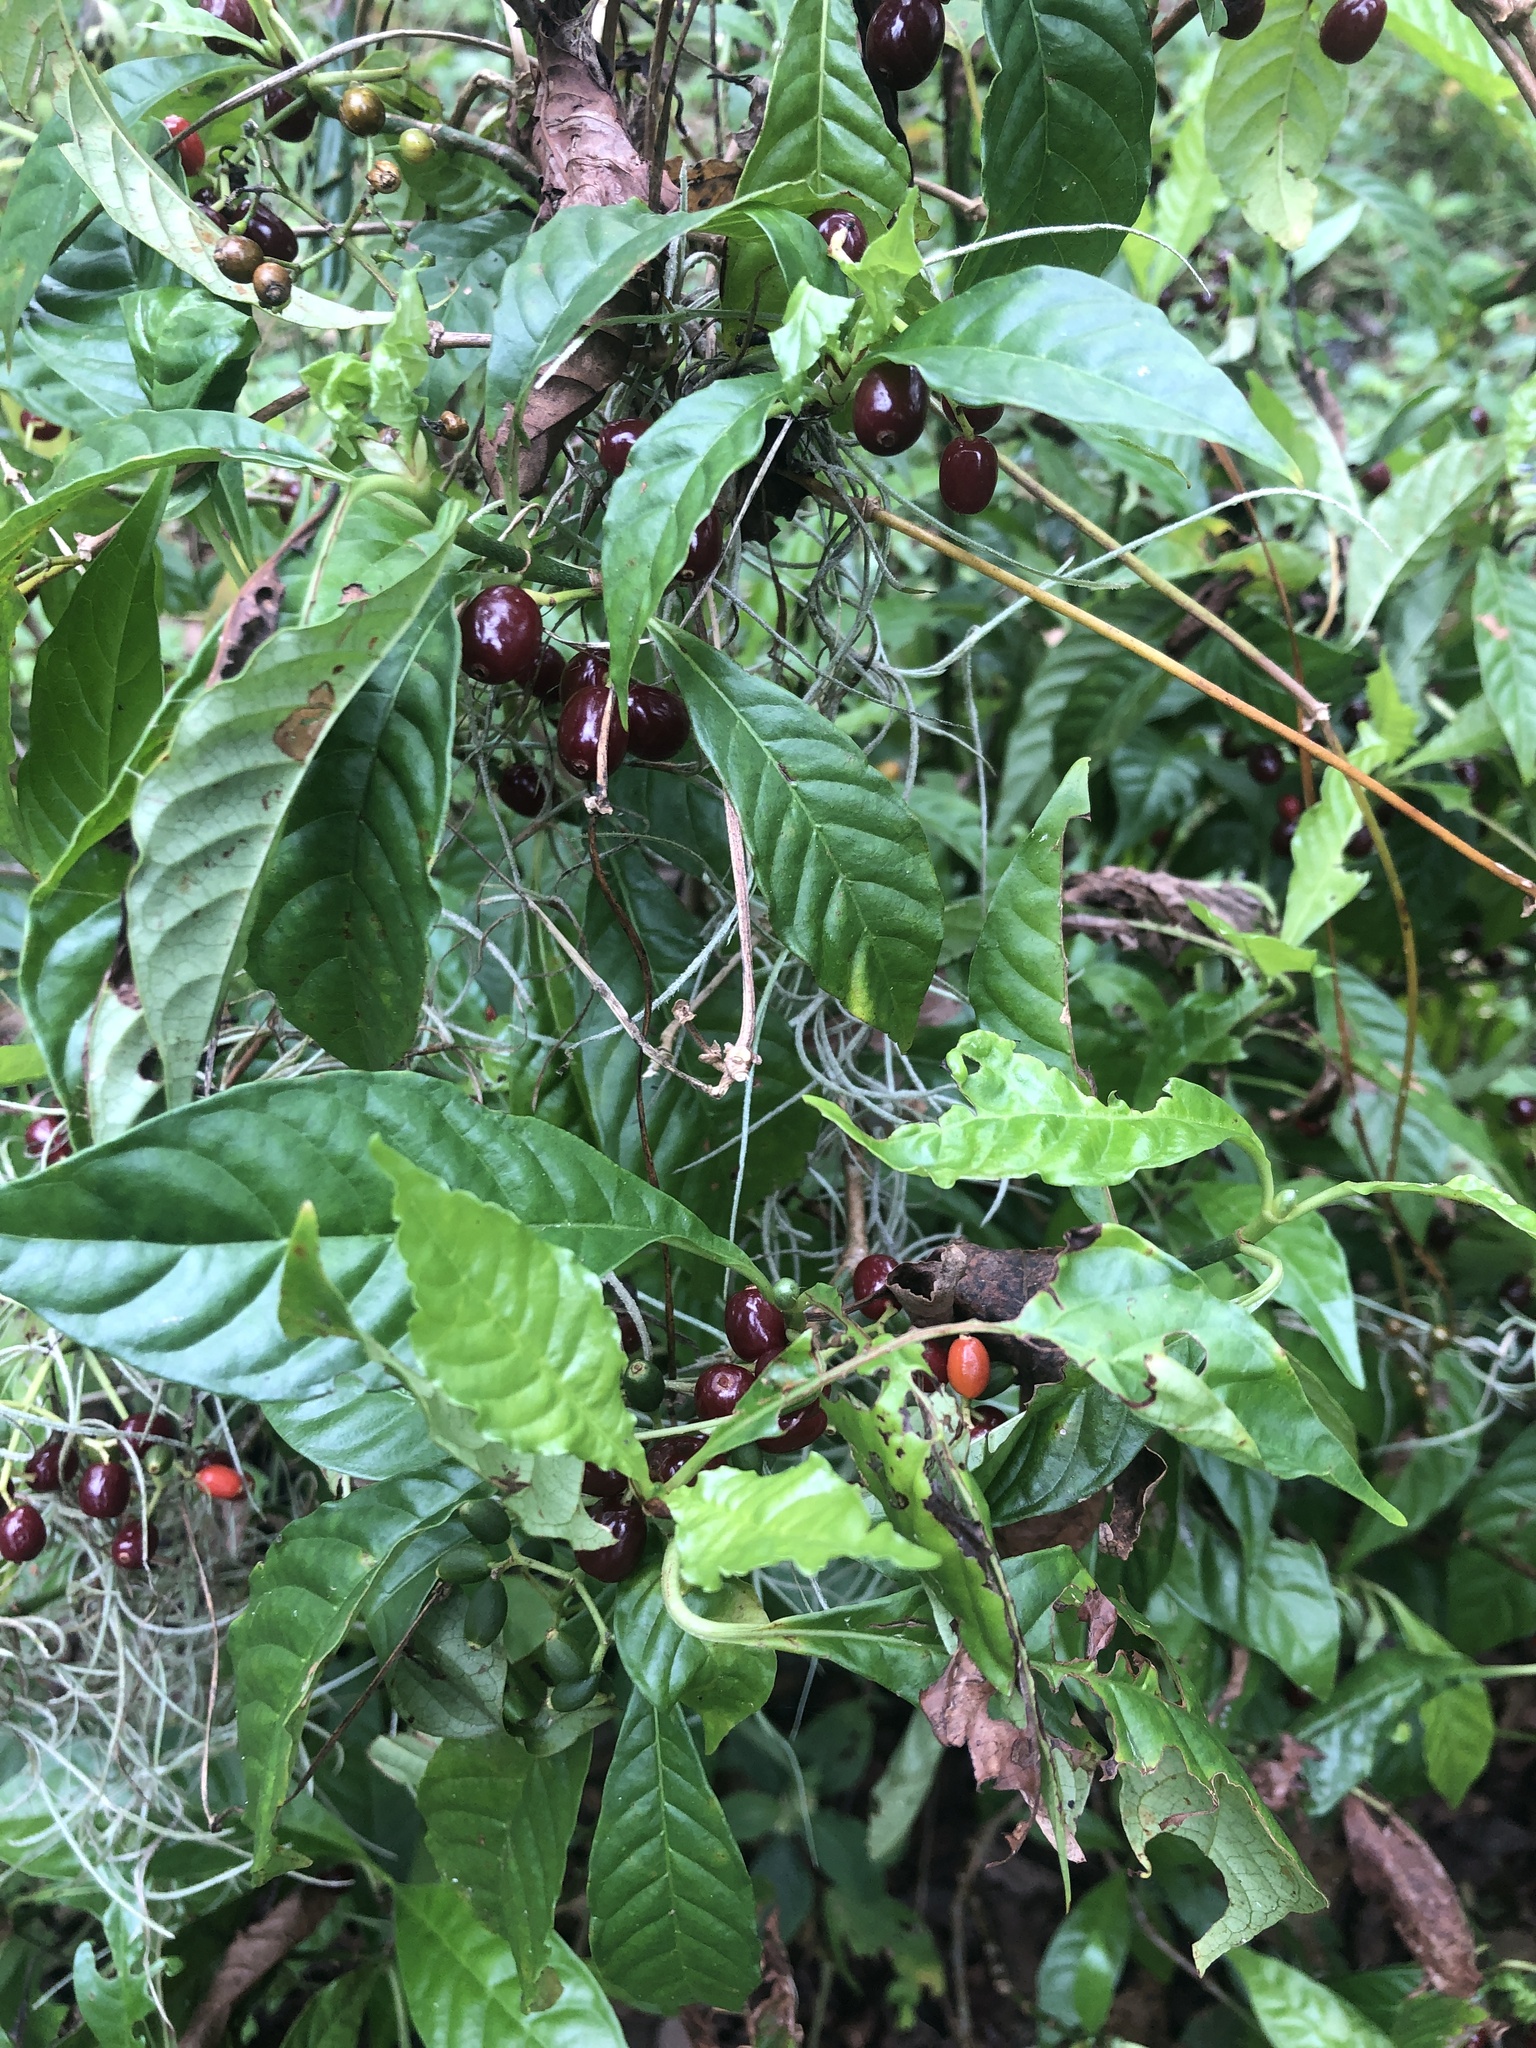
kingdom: Plantae
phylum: Tracheophyta
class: Magnoliopsida
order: Gentianales
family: Rubiaceae
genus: Psychotria
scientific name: Psychotria nervosa
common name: Bastard cankerberry
